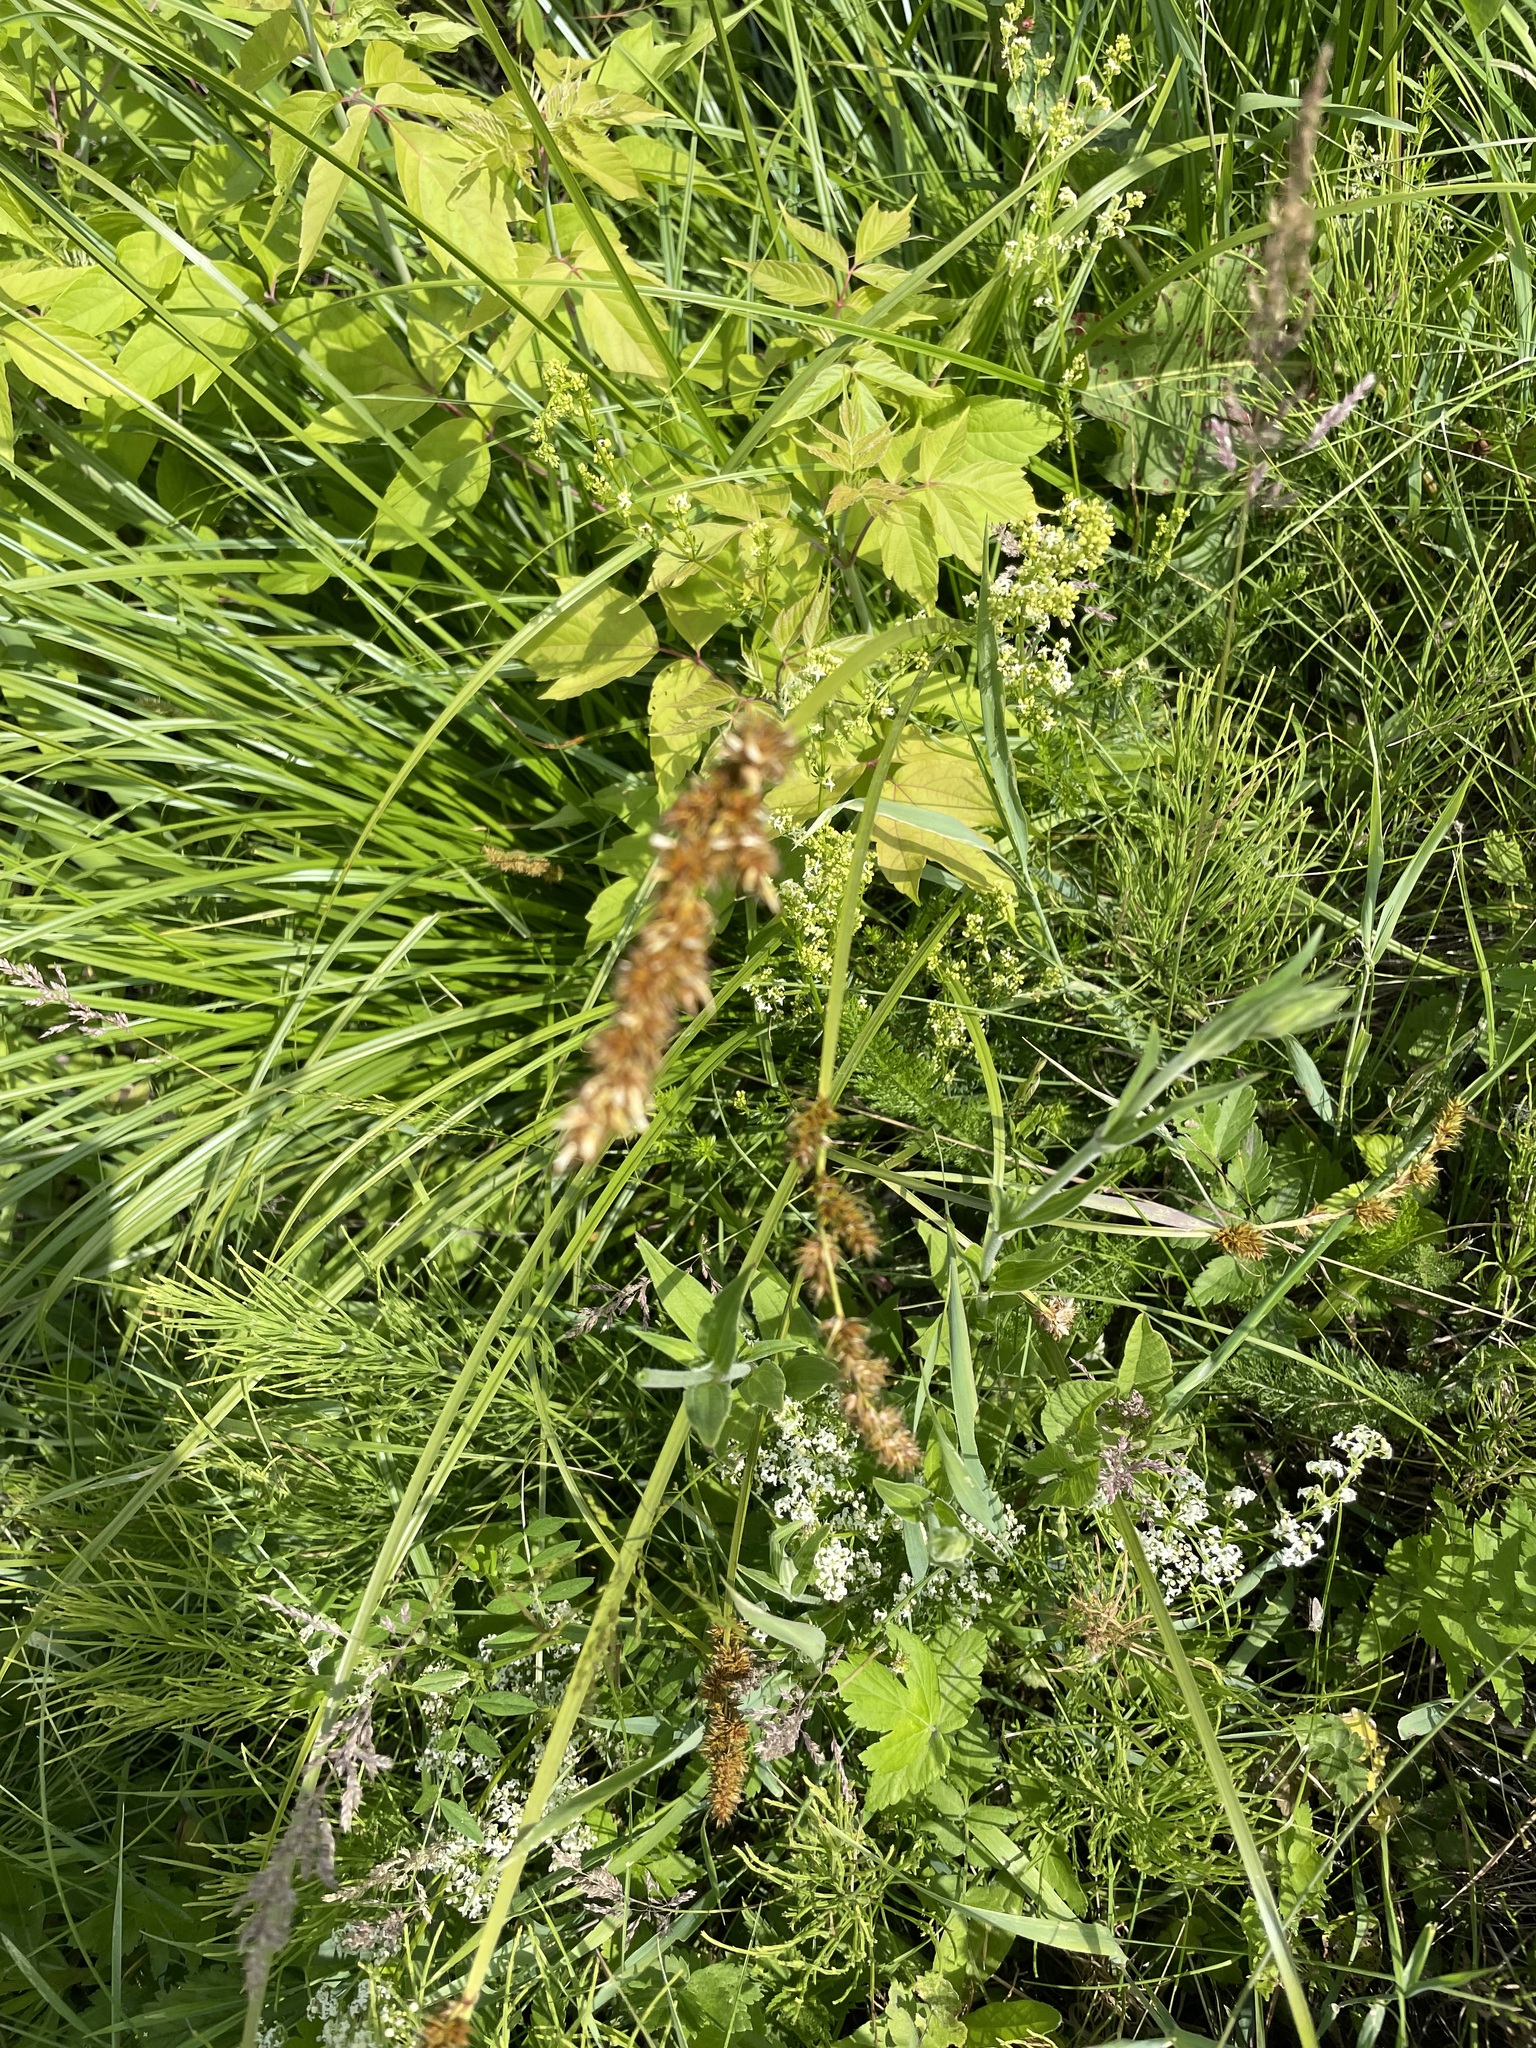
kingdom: Plantae
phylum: Tracheophyta
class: Liliopsida
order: Poales
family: Cyperaceae
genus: Carex
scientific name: Carex vulpina
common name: True fox-sedge
